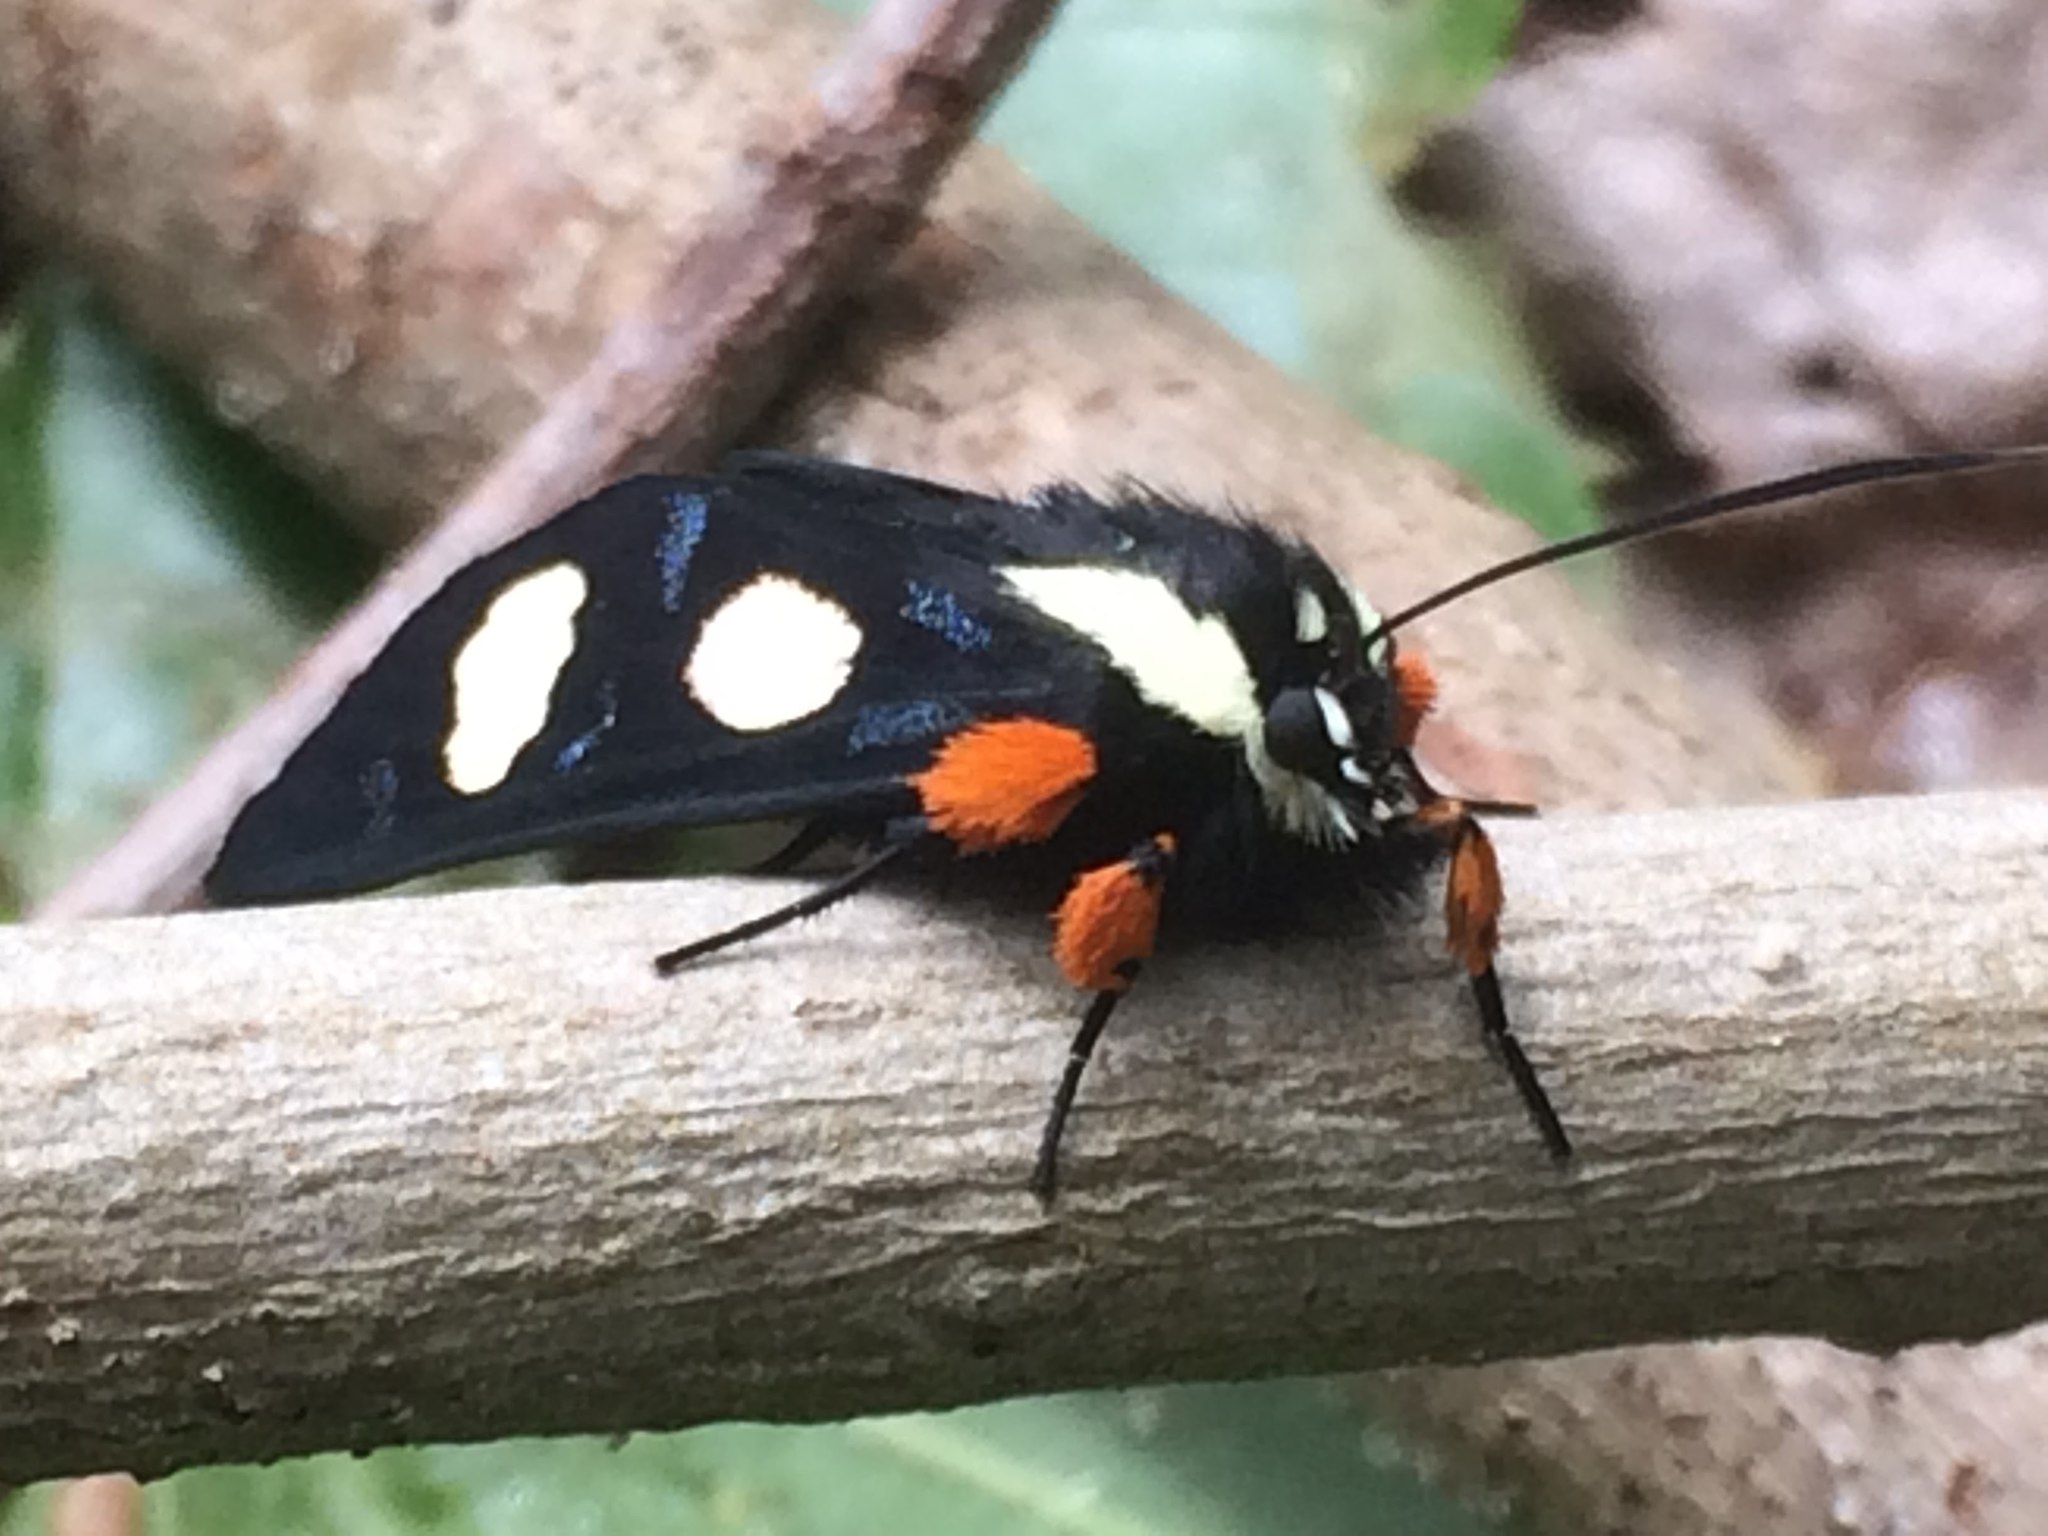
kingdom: Animalia
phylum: Arthropoda
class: Insecta
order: Lepidoptera
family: Noctuidae
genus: Alypia
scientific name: Alypia octomaculata
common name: Eight-spotted forester
